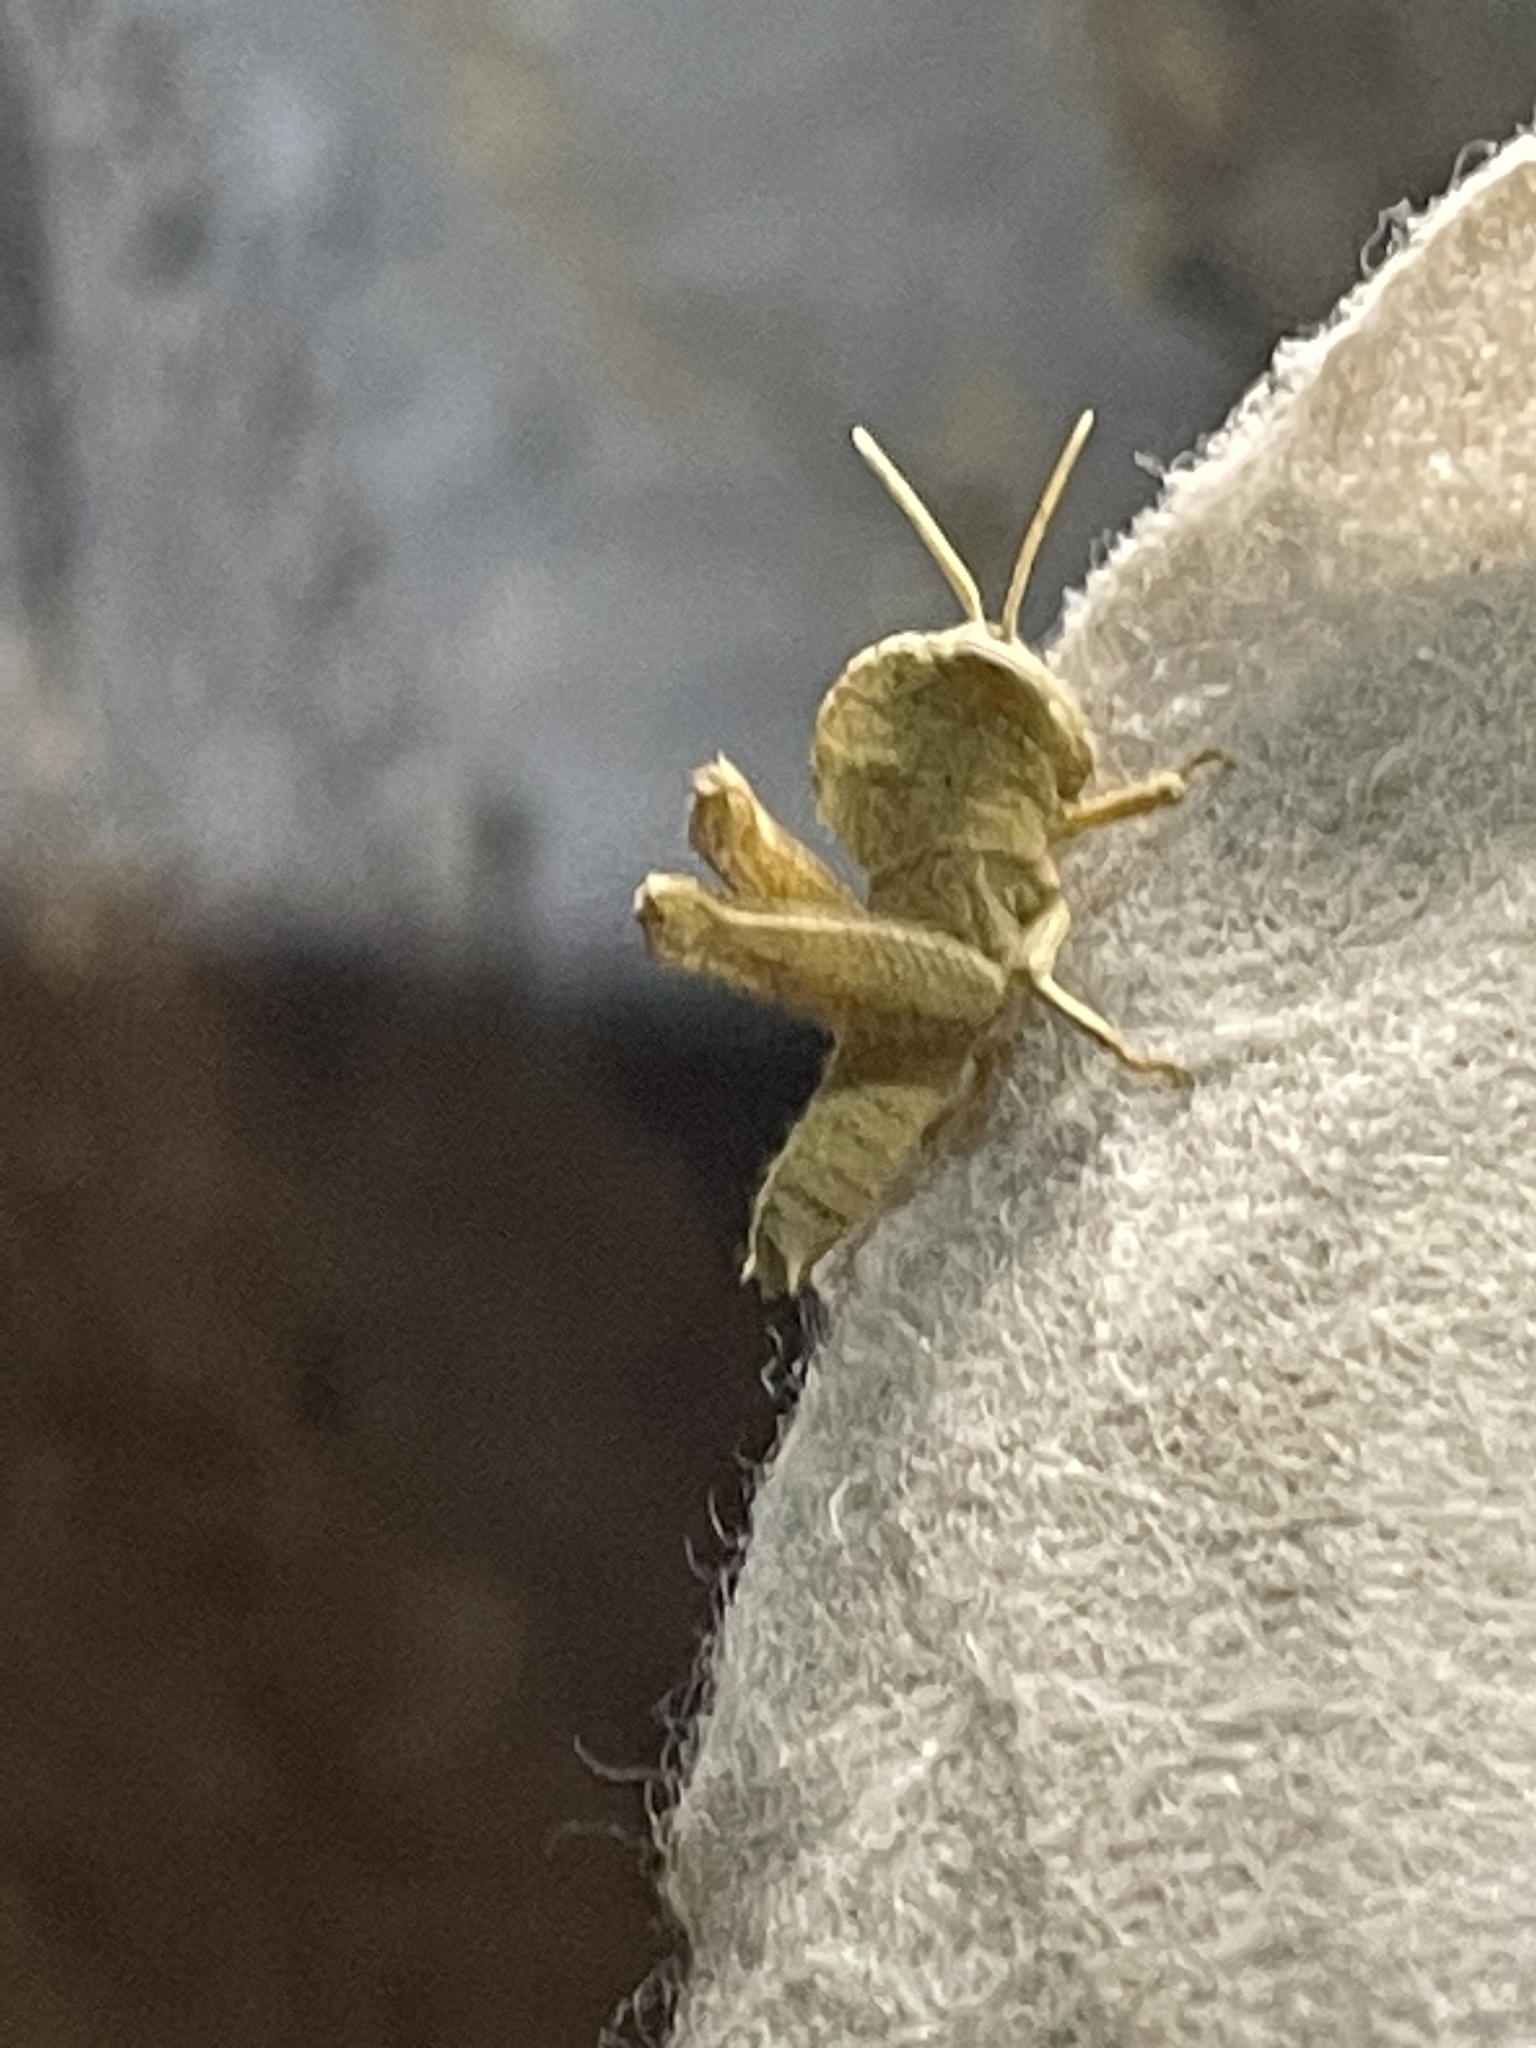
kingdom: Animalia
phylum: Arthropoda
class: Insecta
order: Orthoptera
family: Acrididae
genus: Abisares
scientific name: Abisares viridipenne
